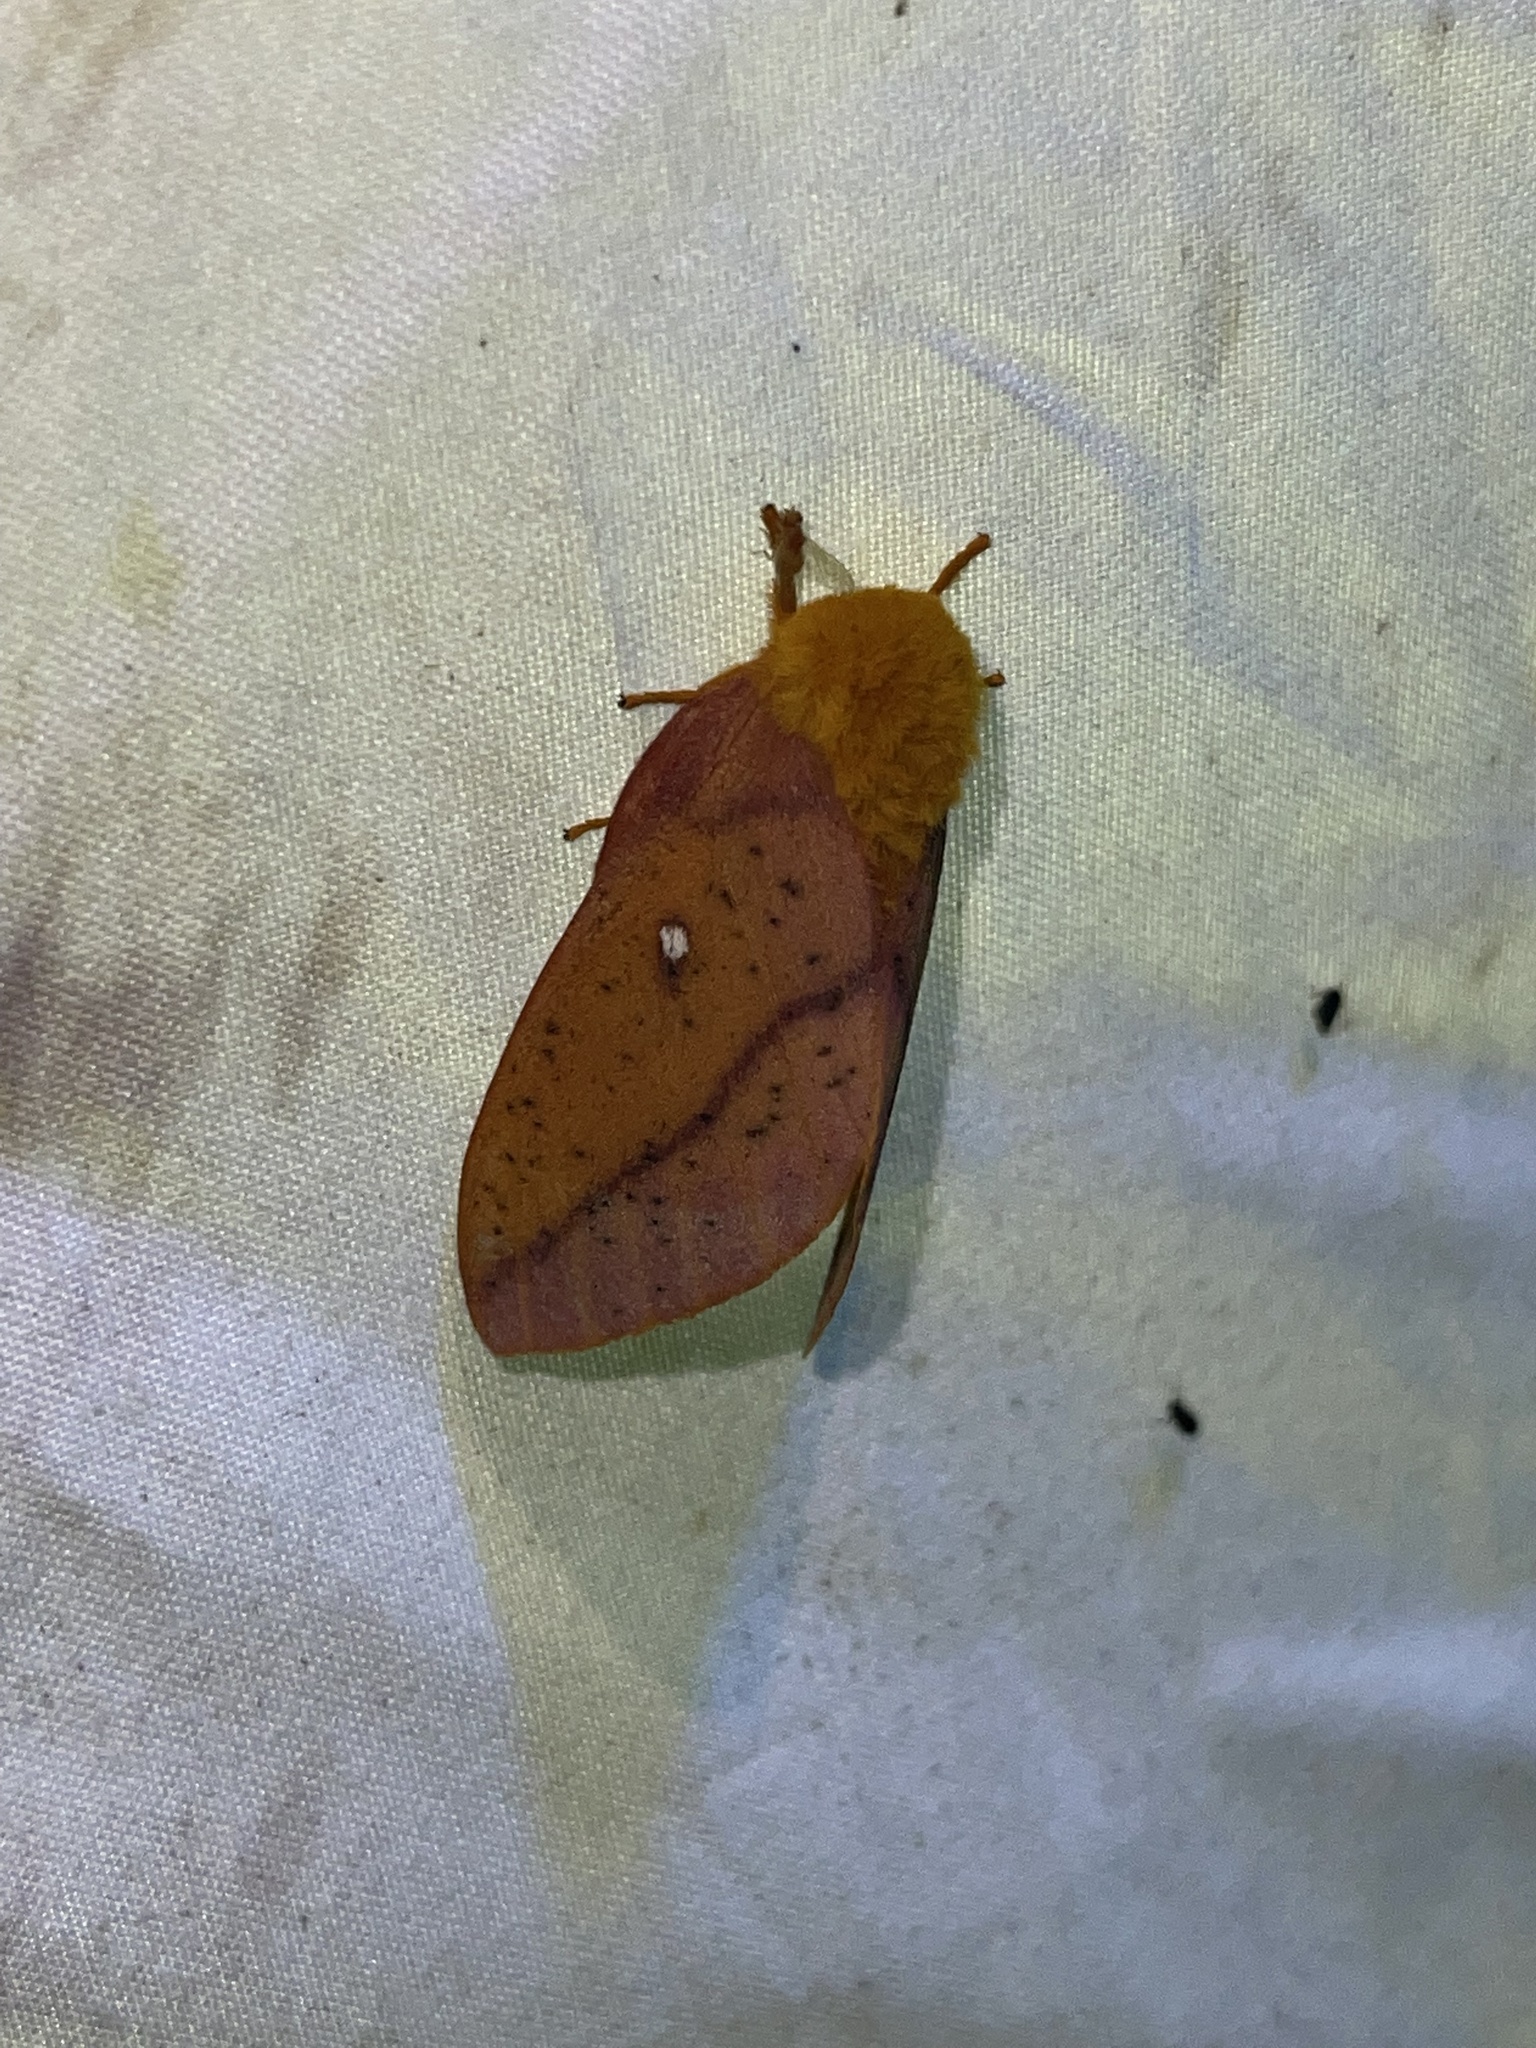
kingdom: Animalia
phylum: Arthropoda
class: Insecta
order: Lepidoptera
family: Saturniidae
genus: Anisota
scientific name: Anisota senatoria
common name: Orange-striped oakworm moth
